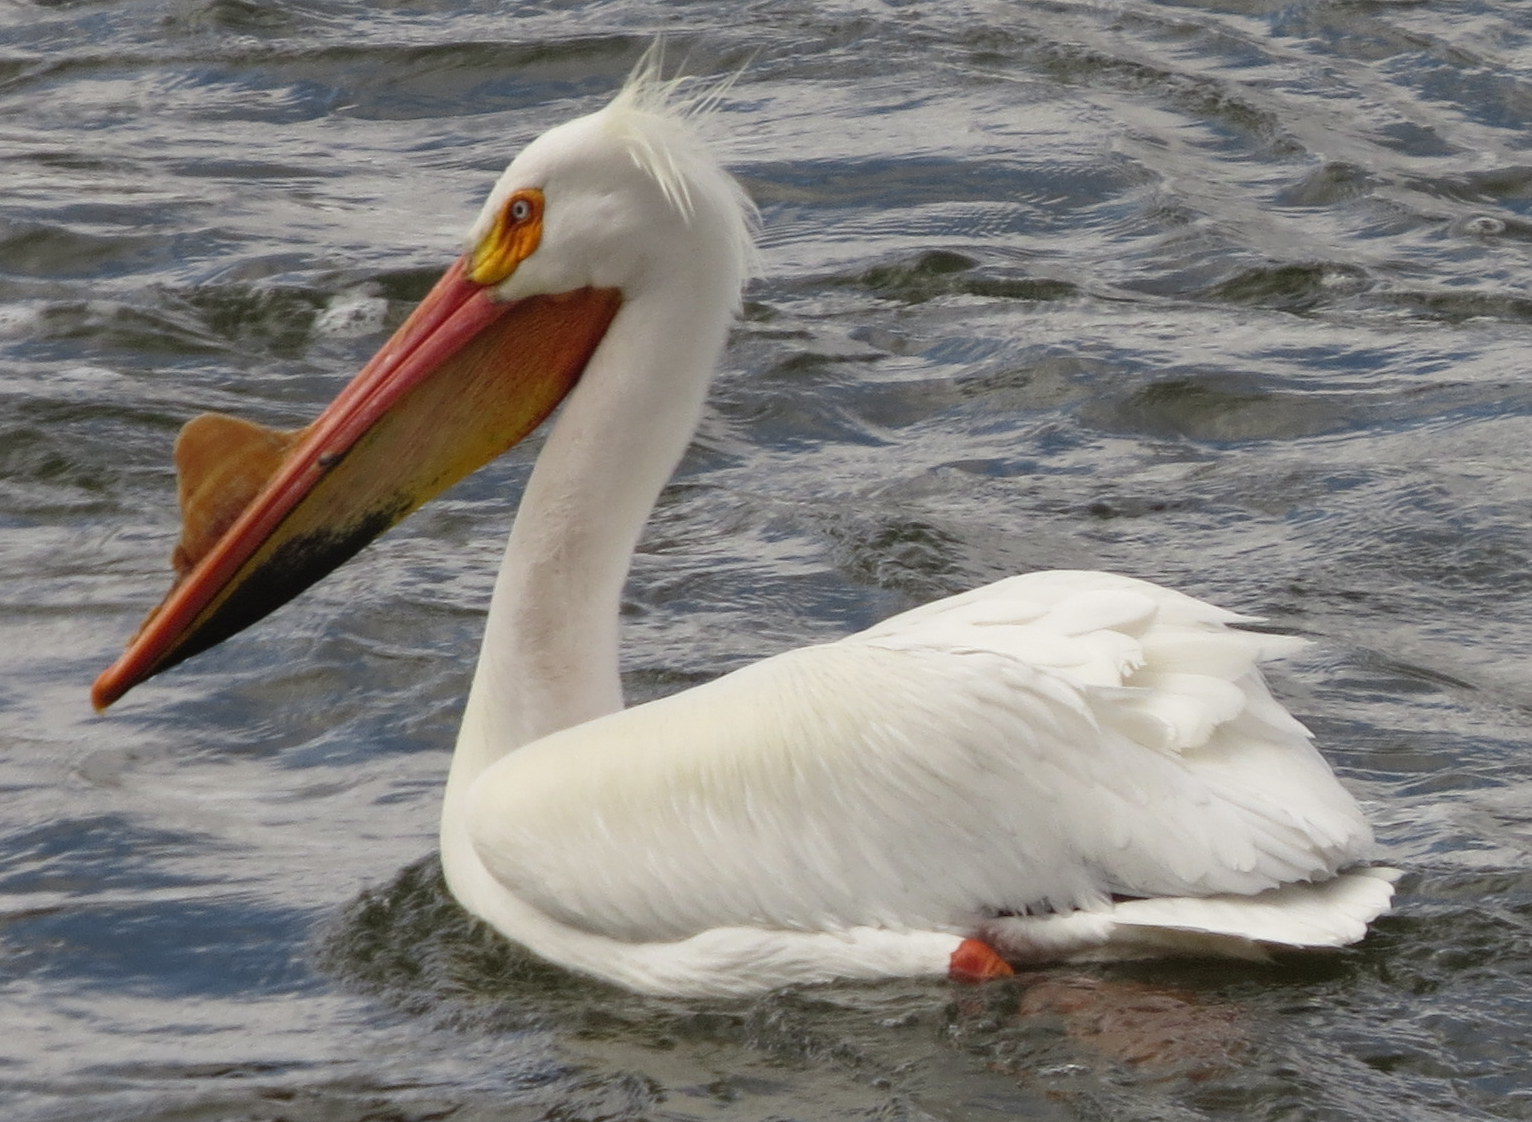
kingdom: Animalia
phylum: Chordata
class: Aves
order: Pelecaniformes
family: Pelecanidae
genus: Pelecanus
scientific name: Pelecanus erythrorhynchos
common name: American white pelican
